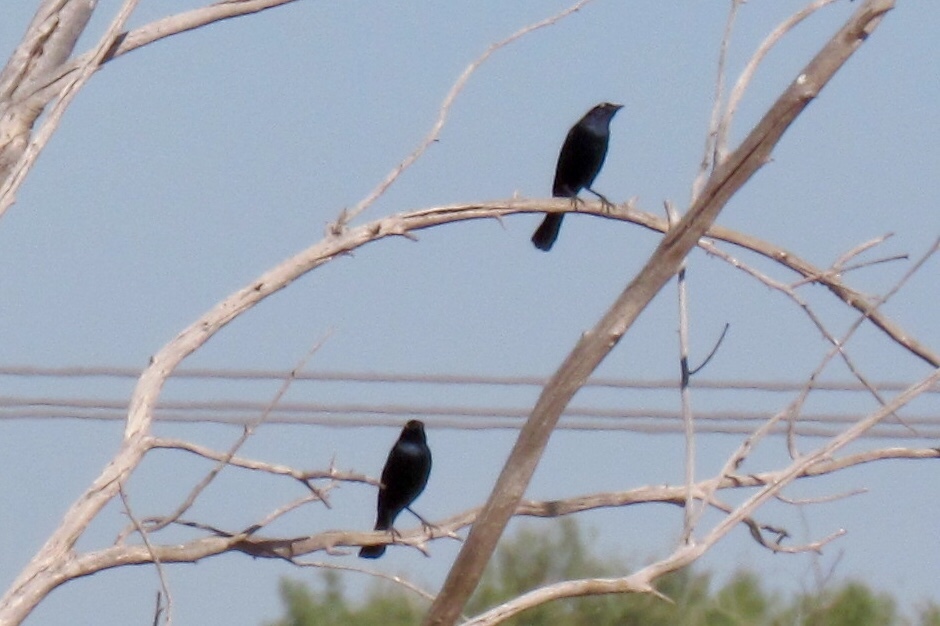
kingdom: Animalia
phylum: Chordata
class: Aves
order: Passeriformes
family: Icteridae
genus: Euphagus
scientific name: Euphagus cyanocephalus
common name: Brewer's blackbird
